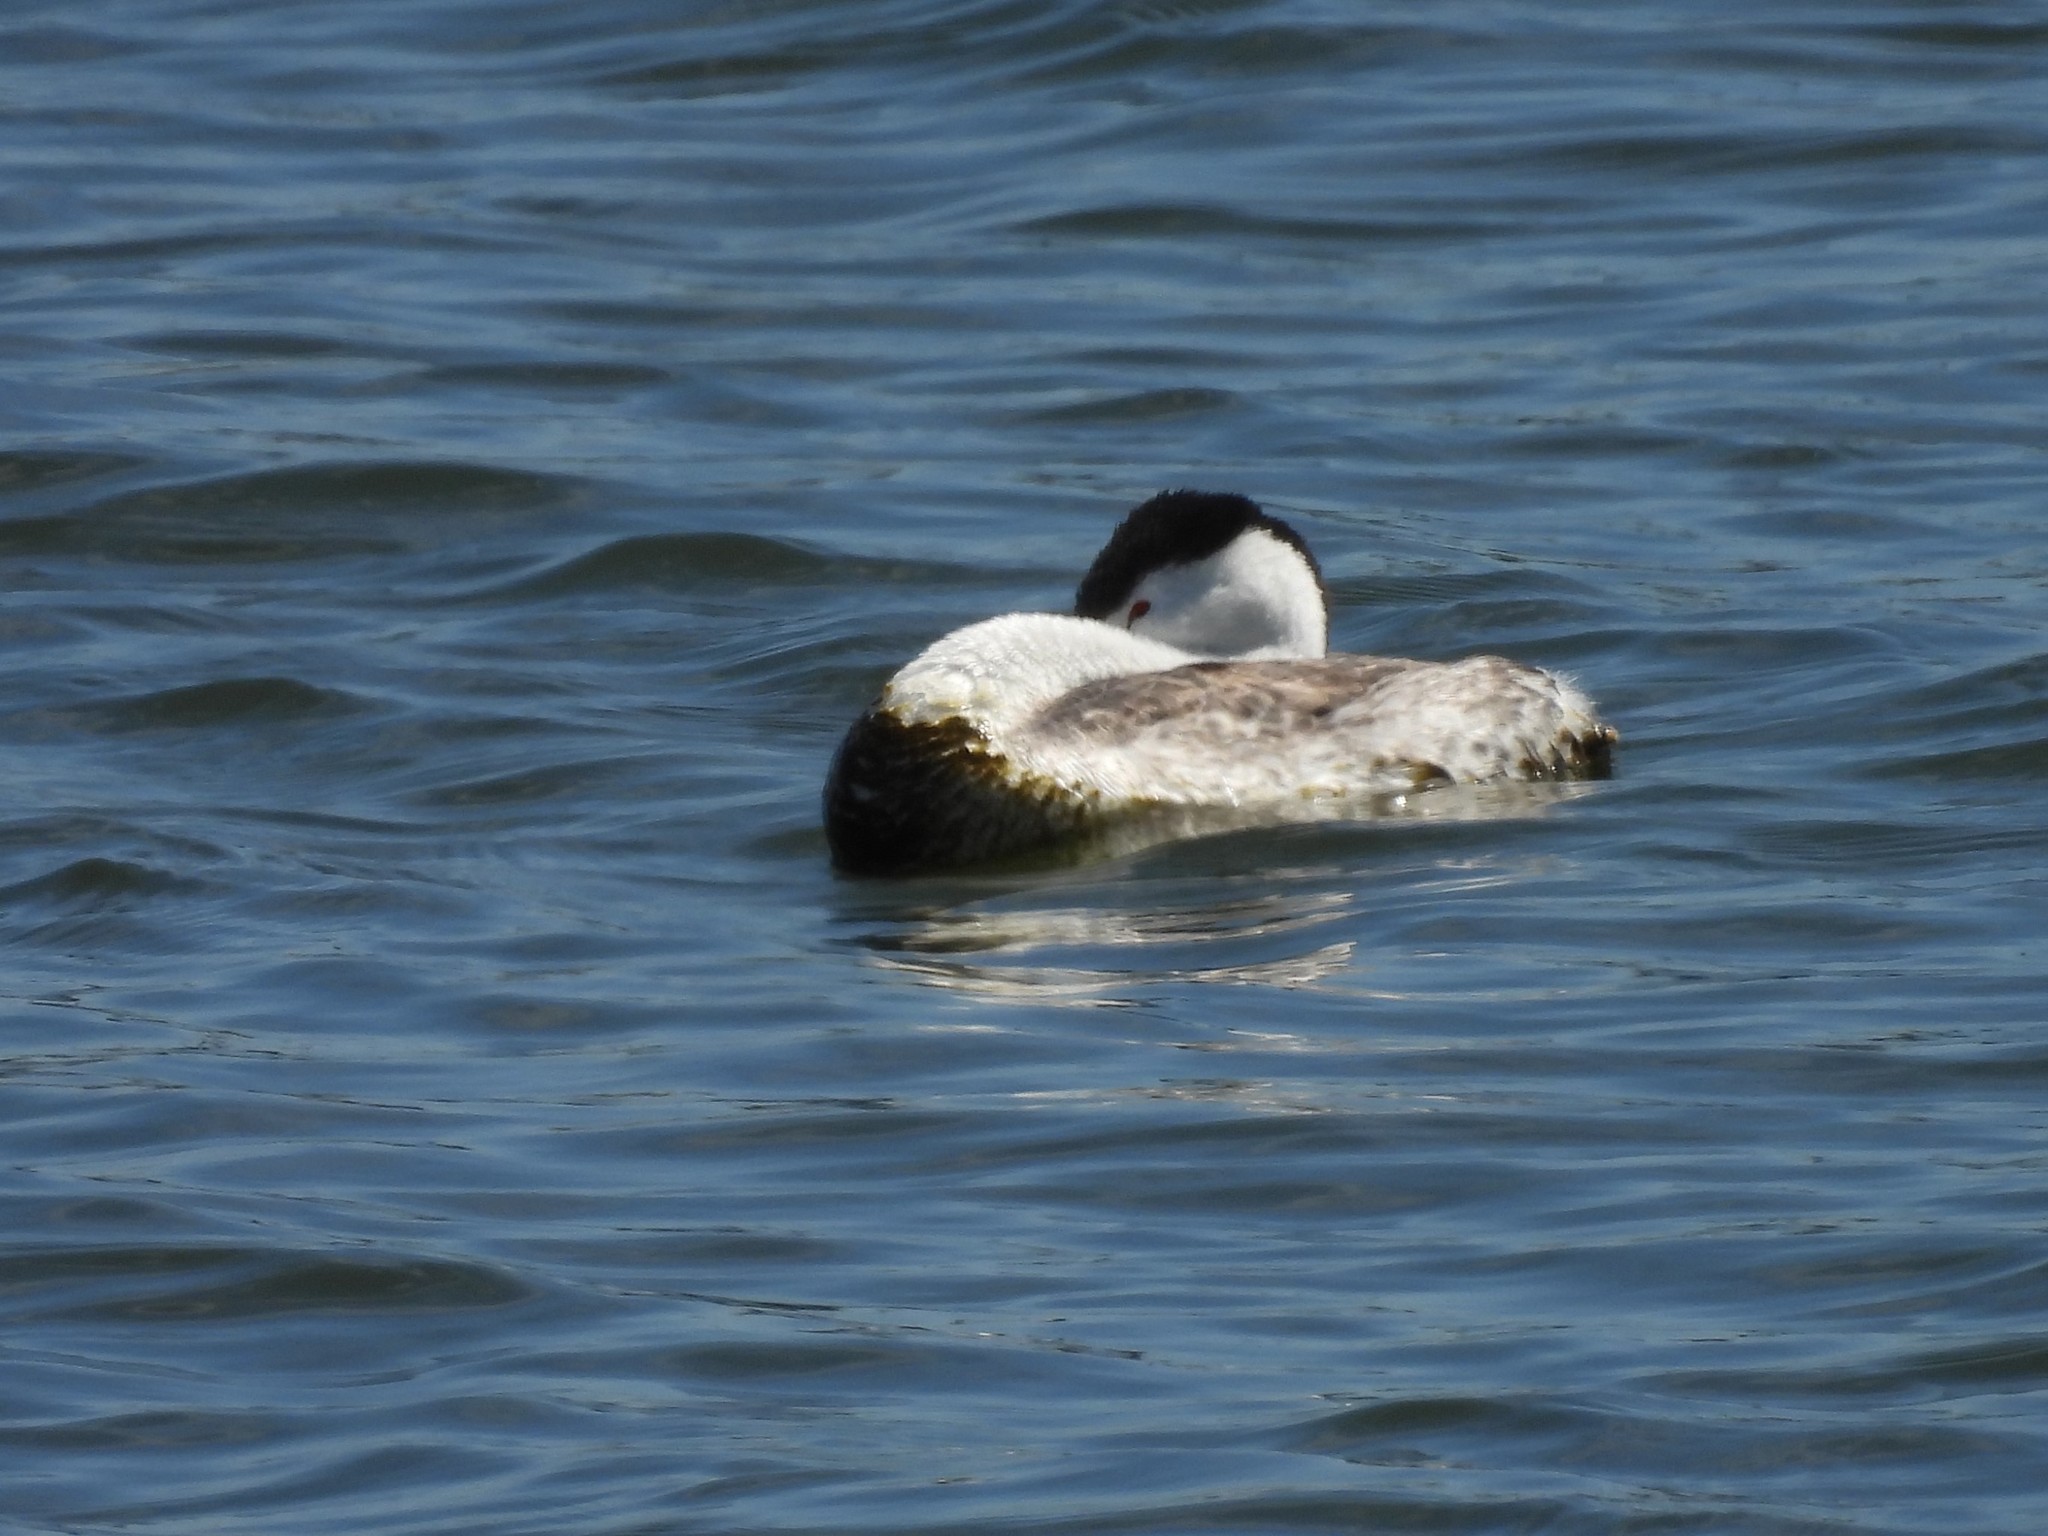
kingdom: Animalia
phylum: Chordata
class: Aves
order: Podicipediformes
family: Podicipedidae
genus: Aechmophorus
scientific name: Aechmophorus clarkii
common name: Clark's grebe
